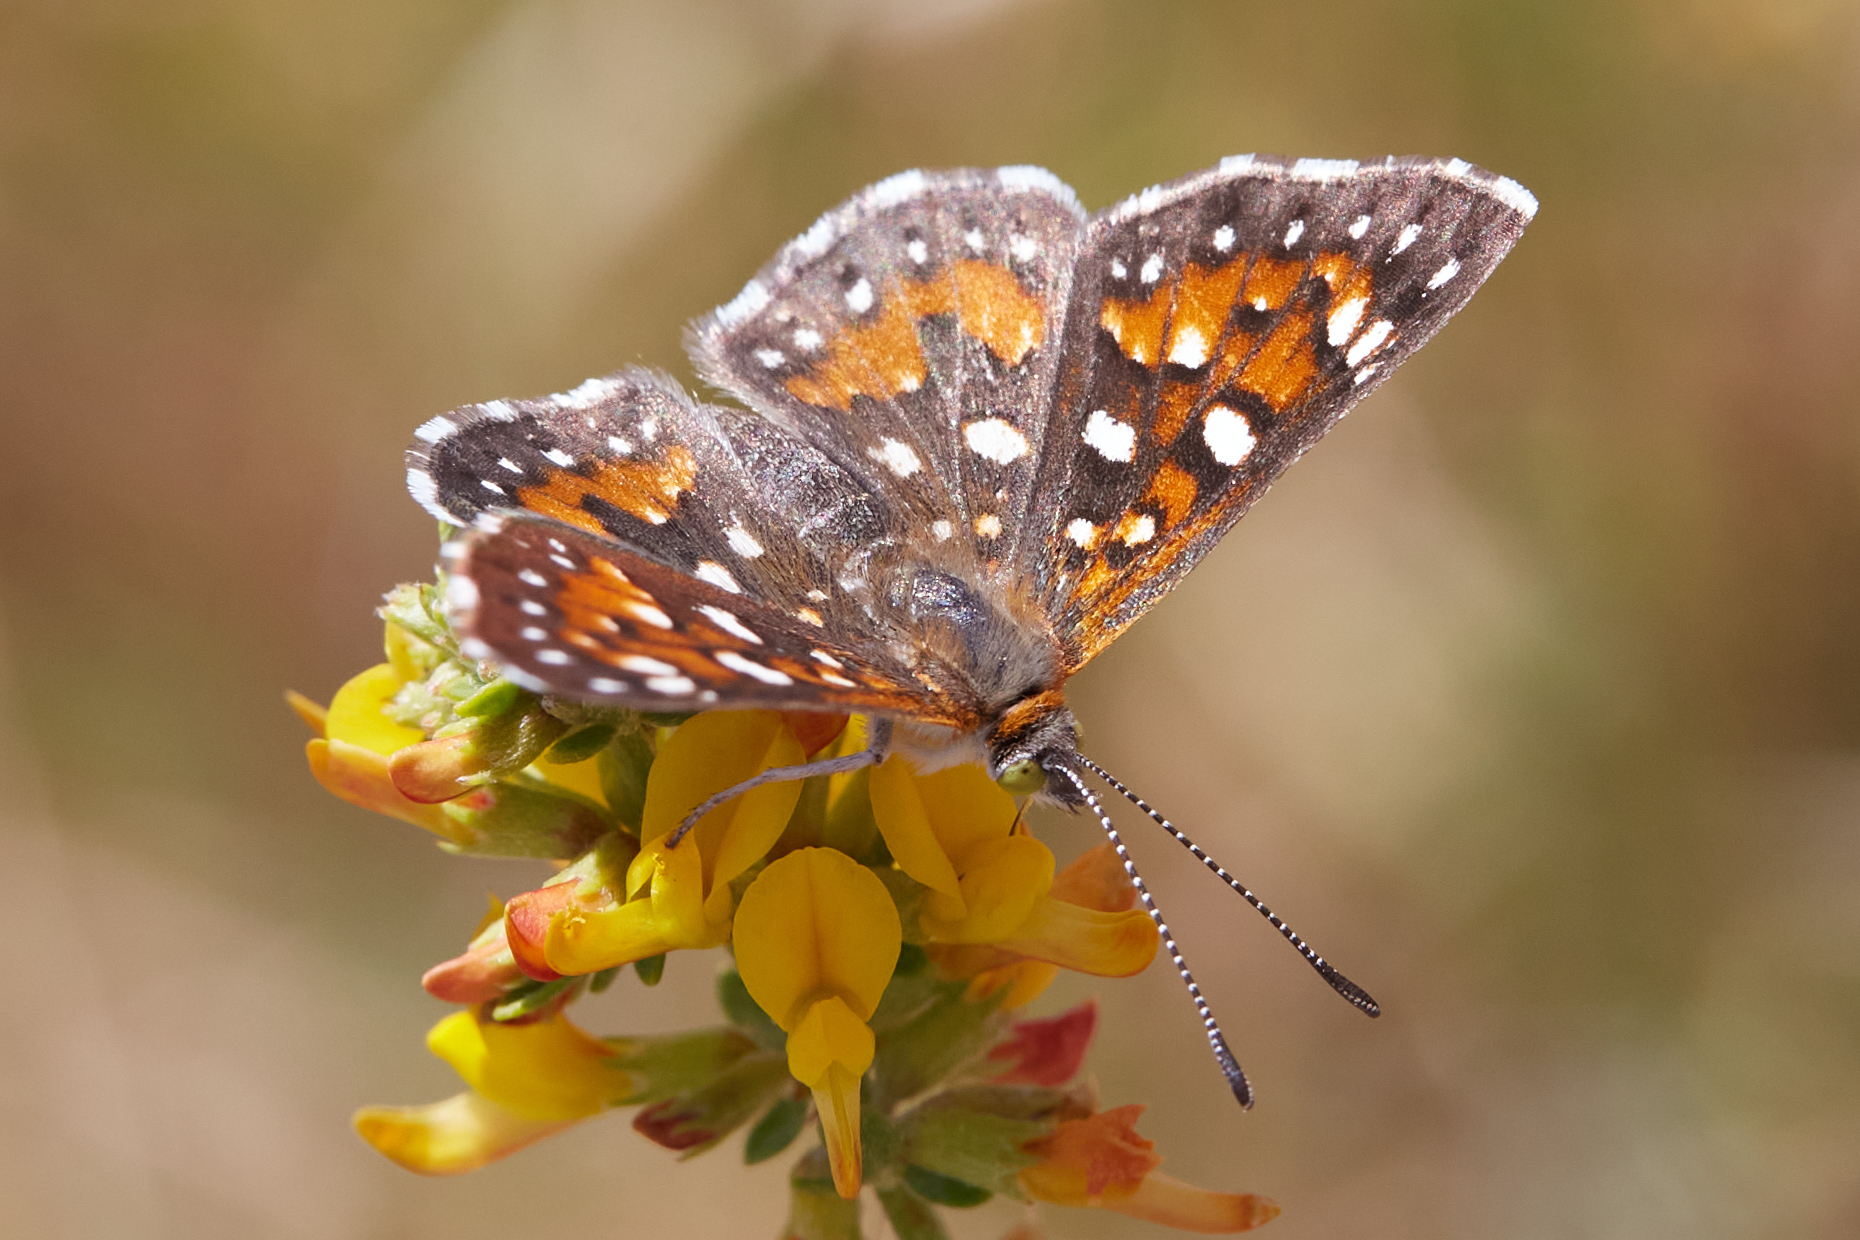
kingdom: Animalia
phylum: Arthropoda
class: Insecta
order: Lepidoptera
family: Riodinidae
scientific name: Riodinidae
